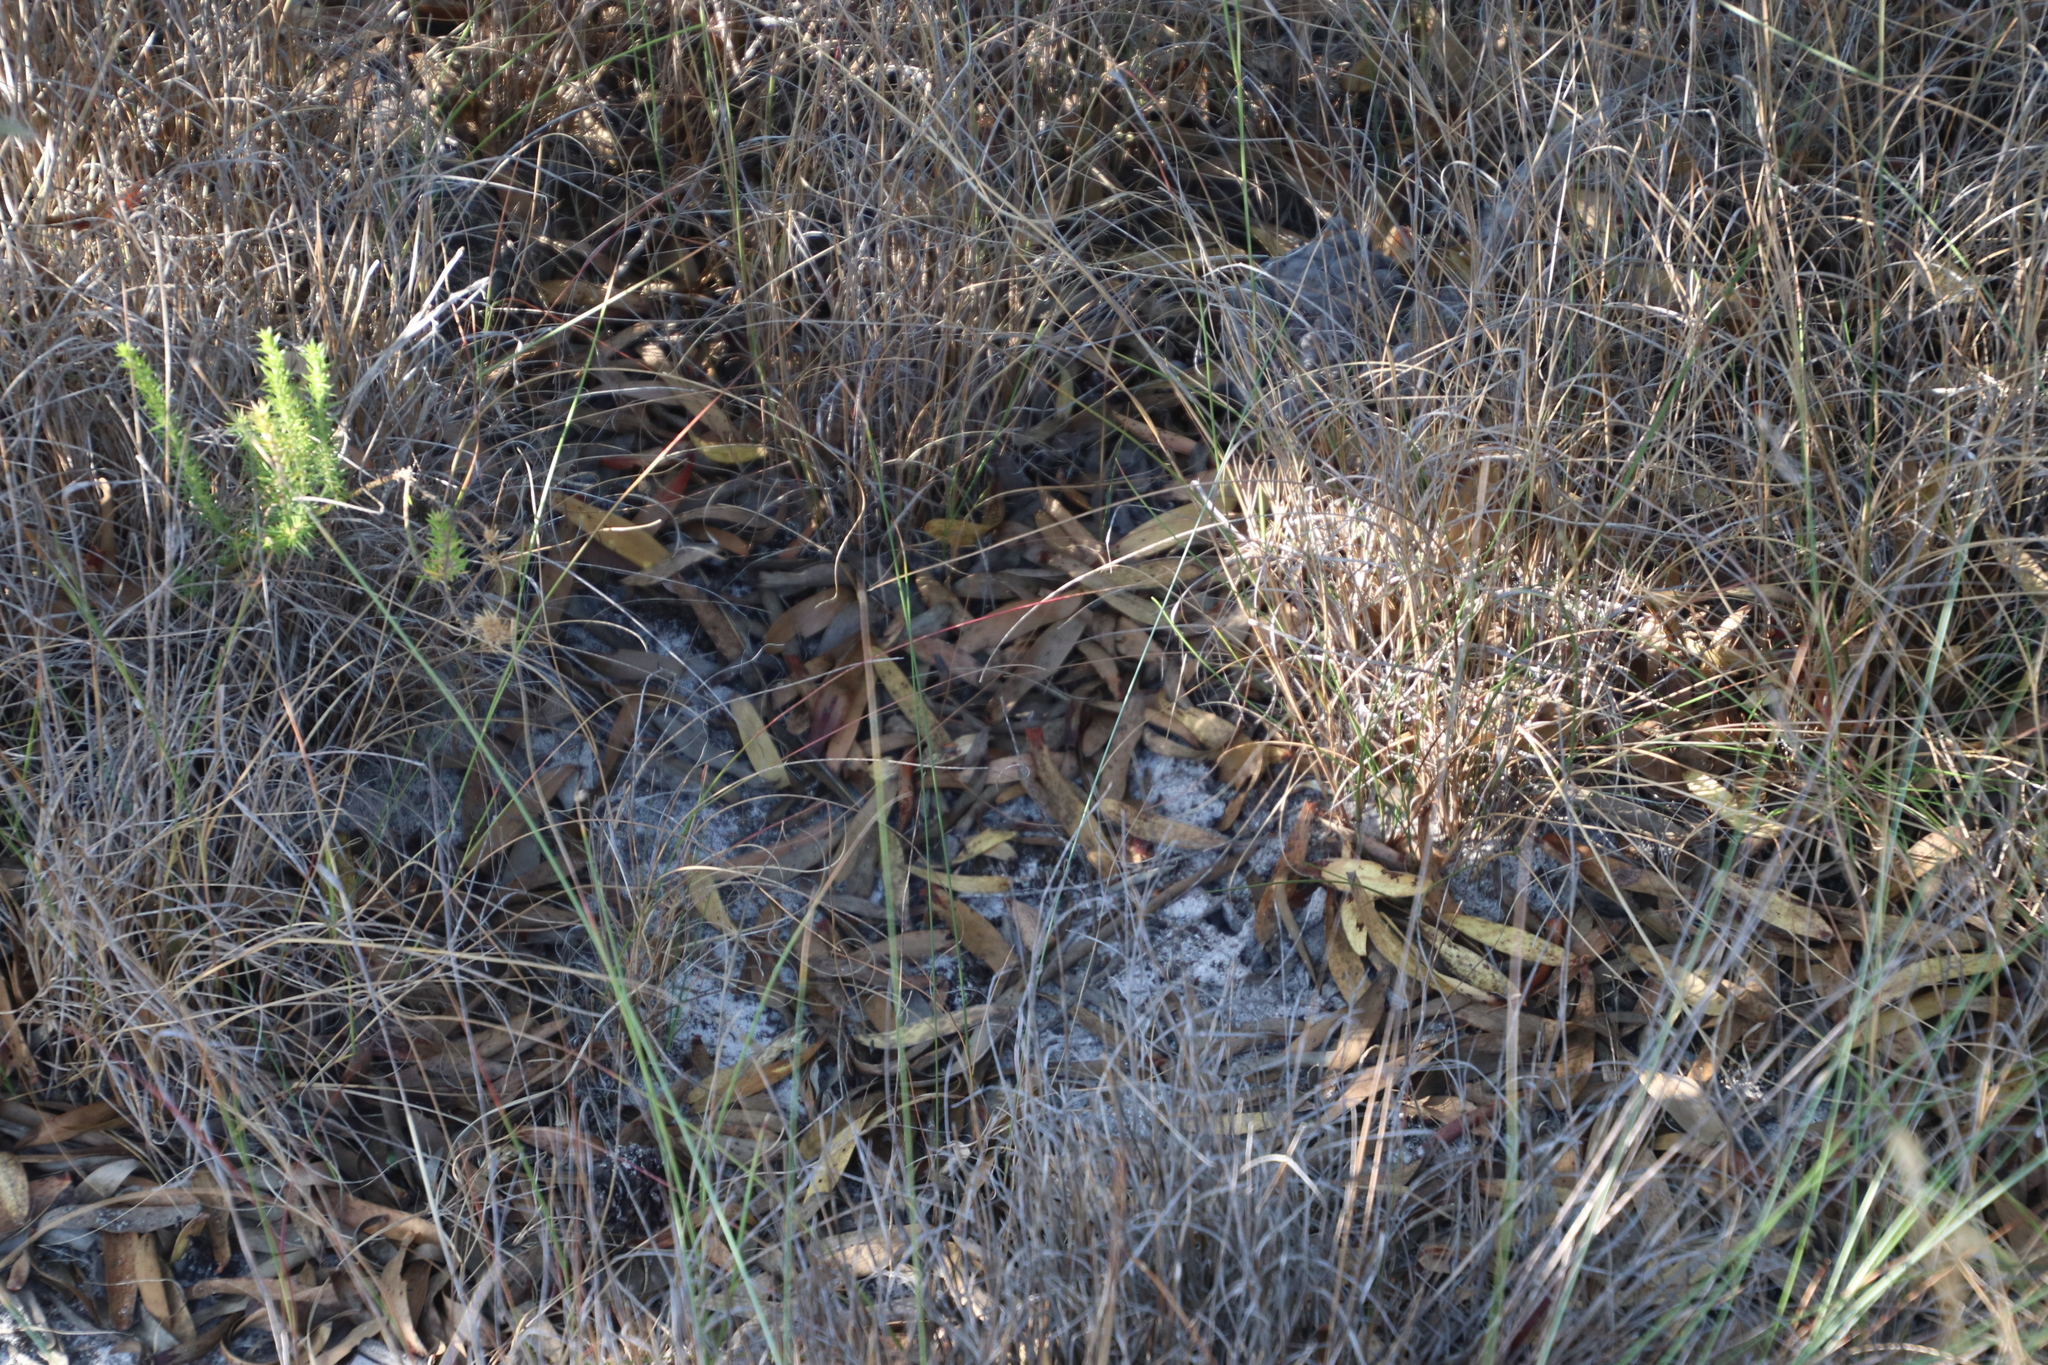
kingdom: Animalia
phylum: Chordata
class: Aves
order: Caprimulgiformes
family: Caprimulgidae
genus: Caprimulgus
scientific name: Caprimulgus pectoralis
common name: Fiery-necked nightjar
